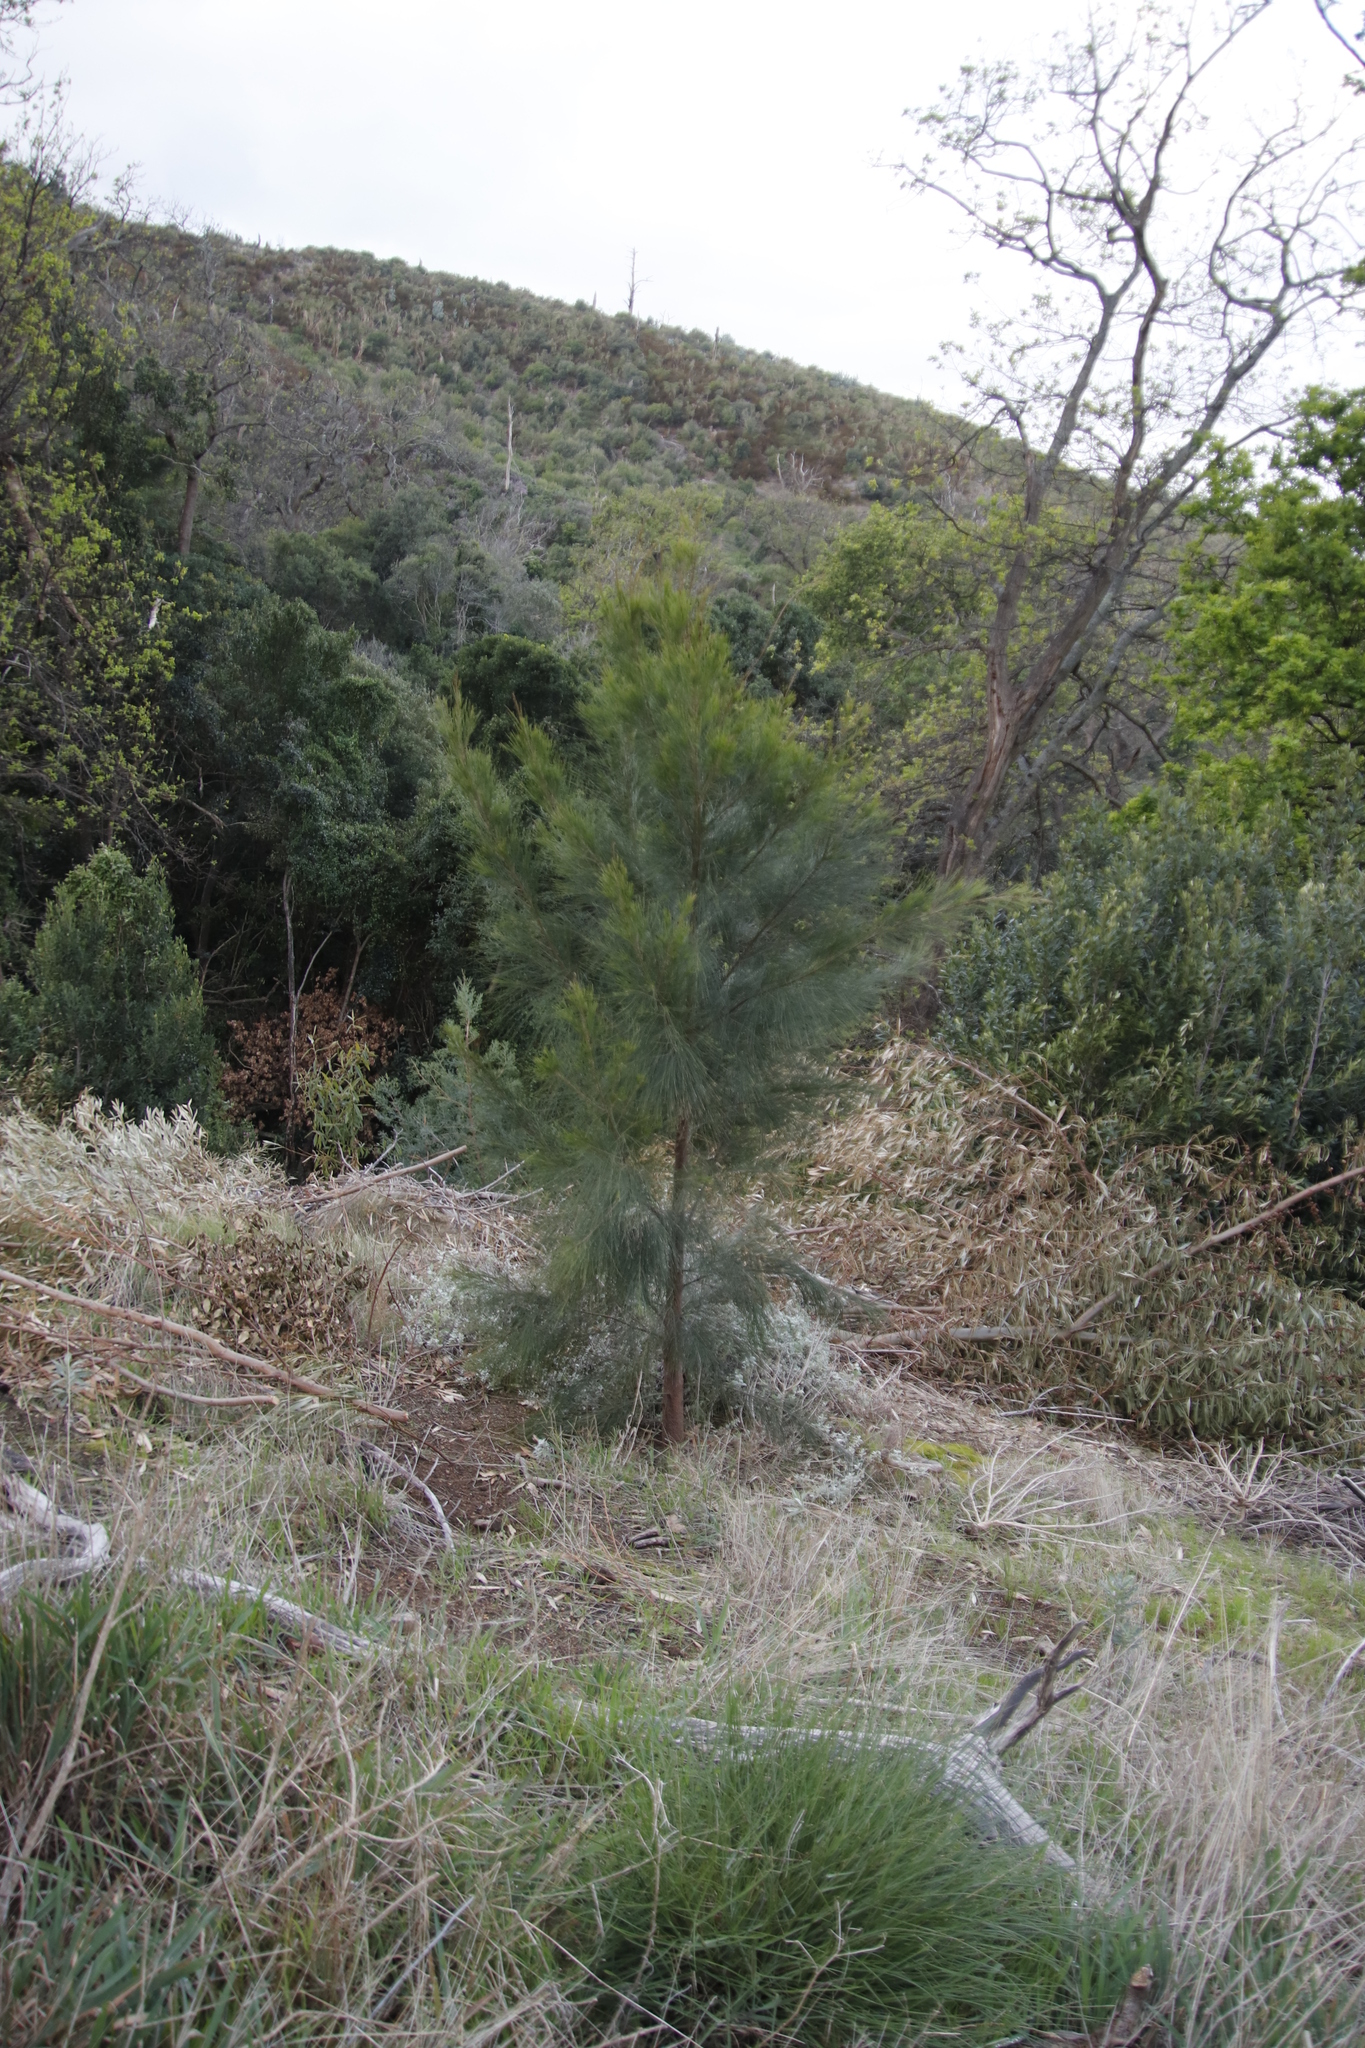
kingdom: Plantae
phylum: Tracheophyta
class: Magnoliopsida
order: Fagales
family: Casuarinaceae
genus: Casuarina
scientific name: Casuarina cunninghamiana
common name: River sheoak
